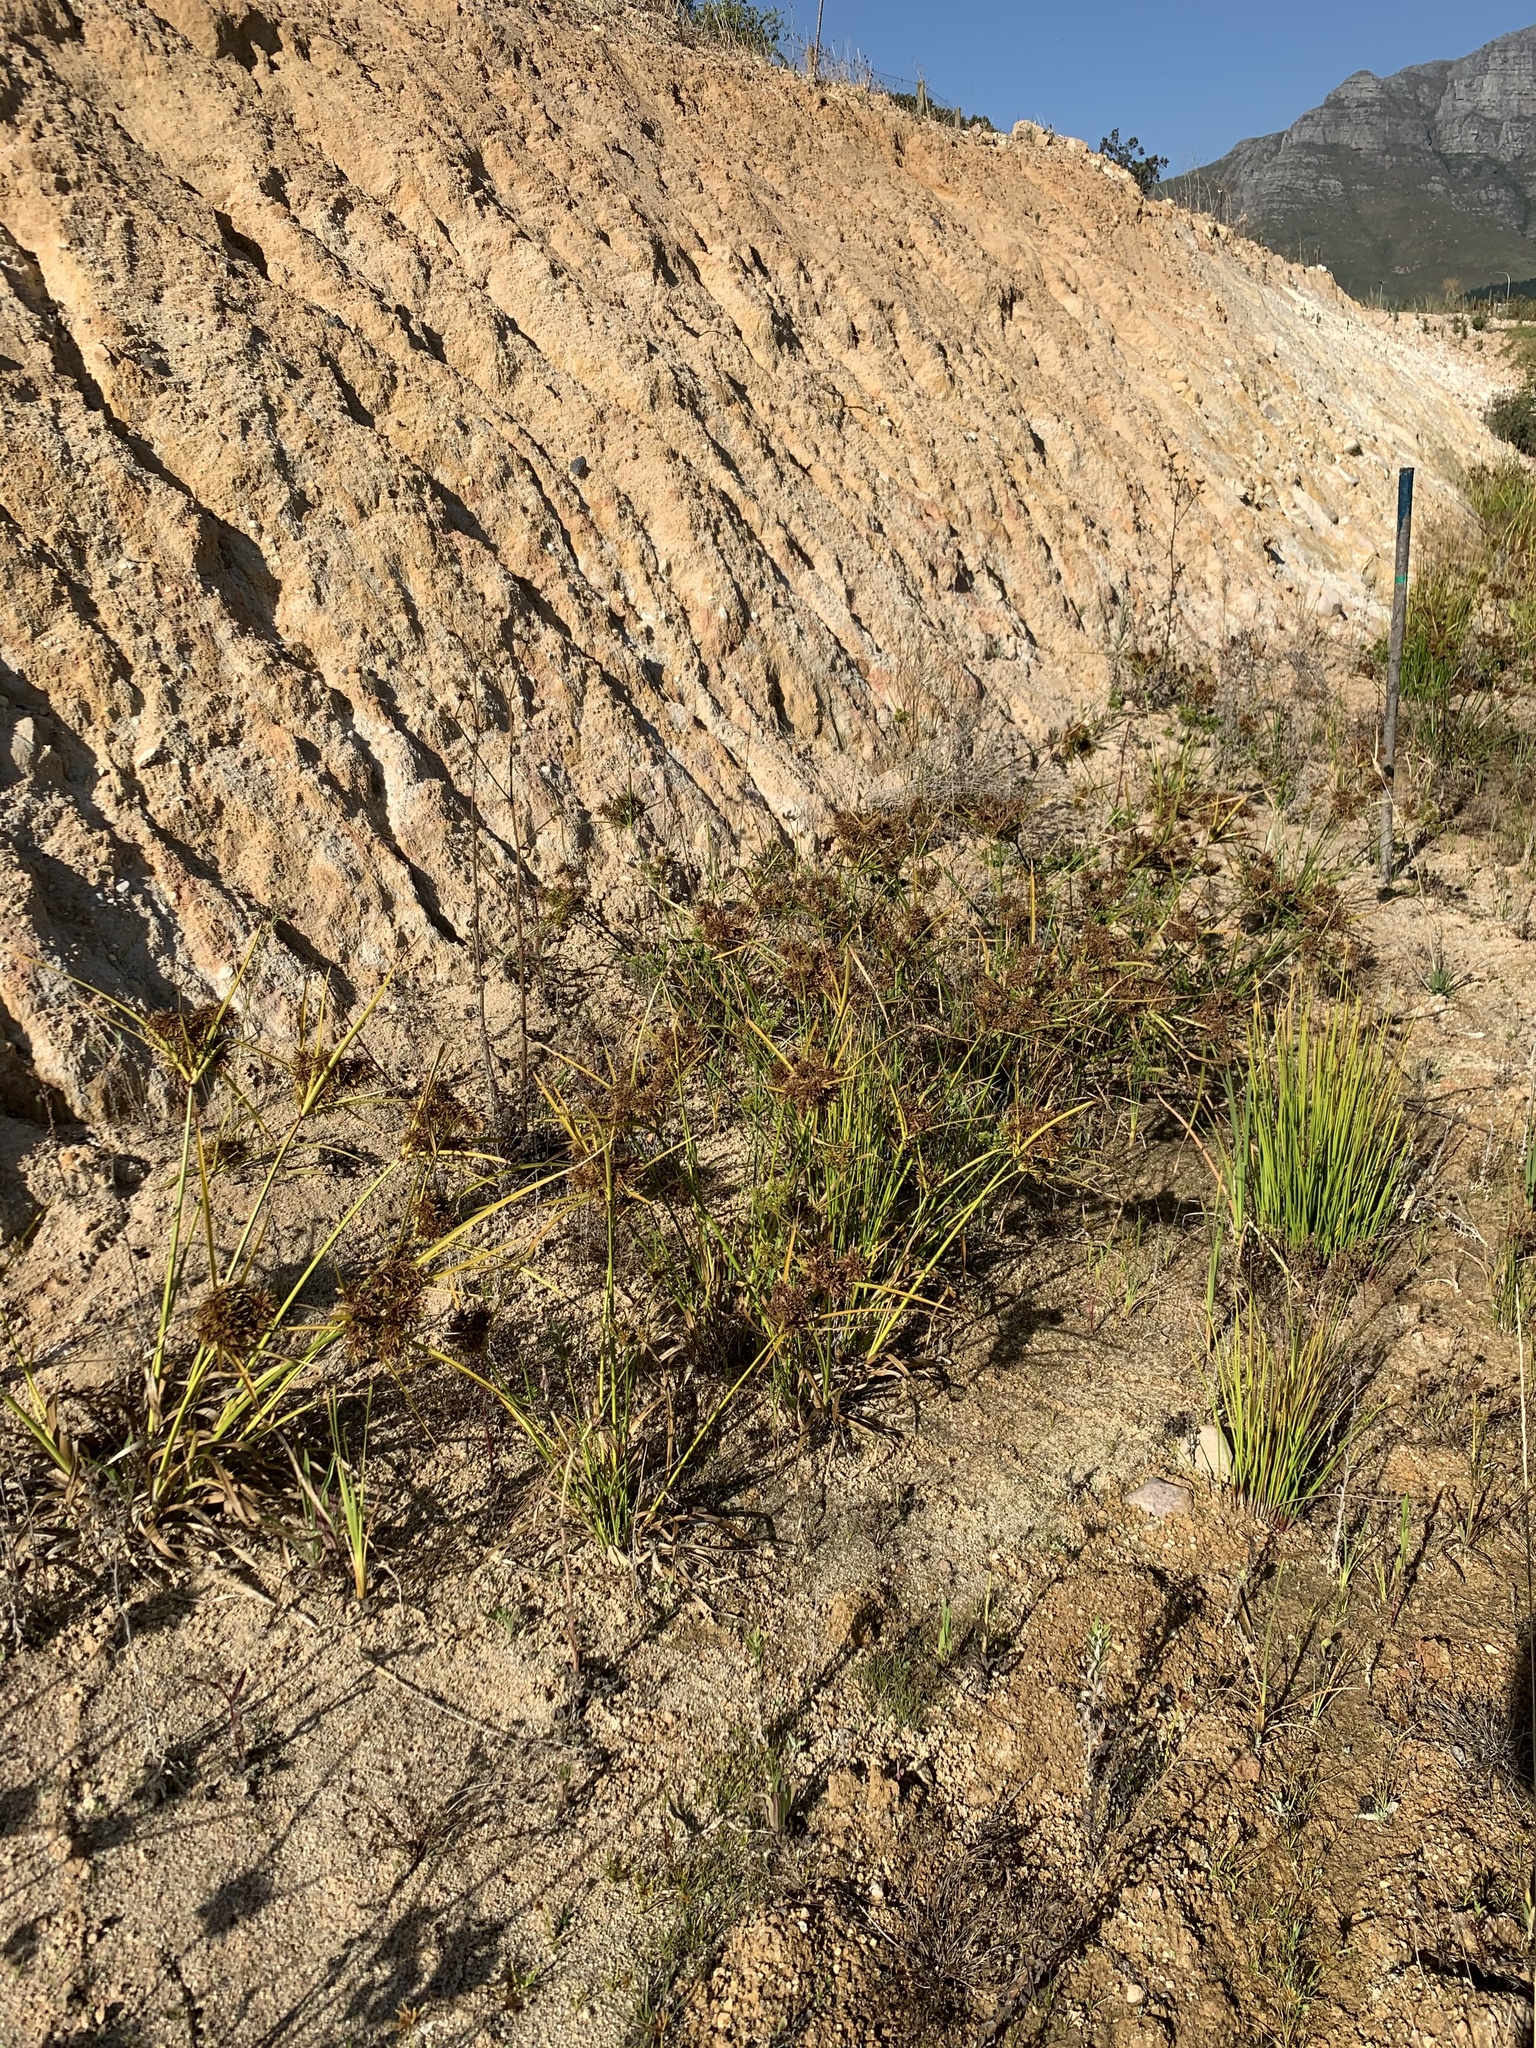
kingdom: Plantae
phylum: Tracheophyta
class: Liliopsida
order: Poales
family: Cyperaceae
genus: Cyperus
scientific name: Cyperus eragrostis
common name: Tall flatsedge
